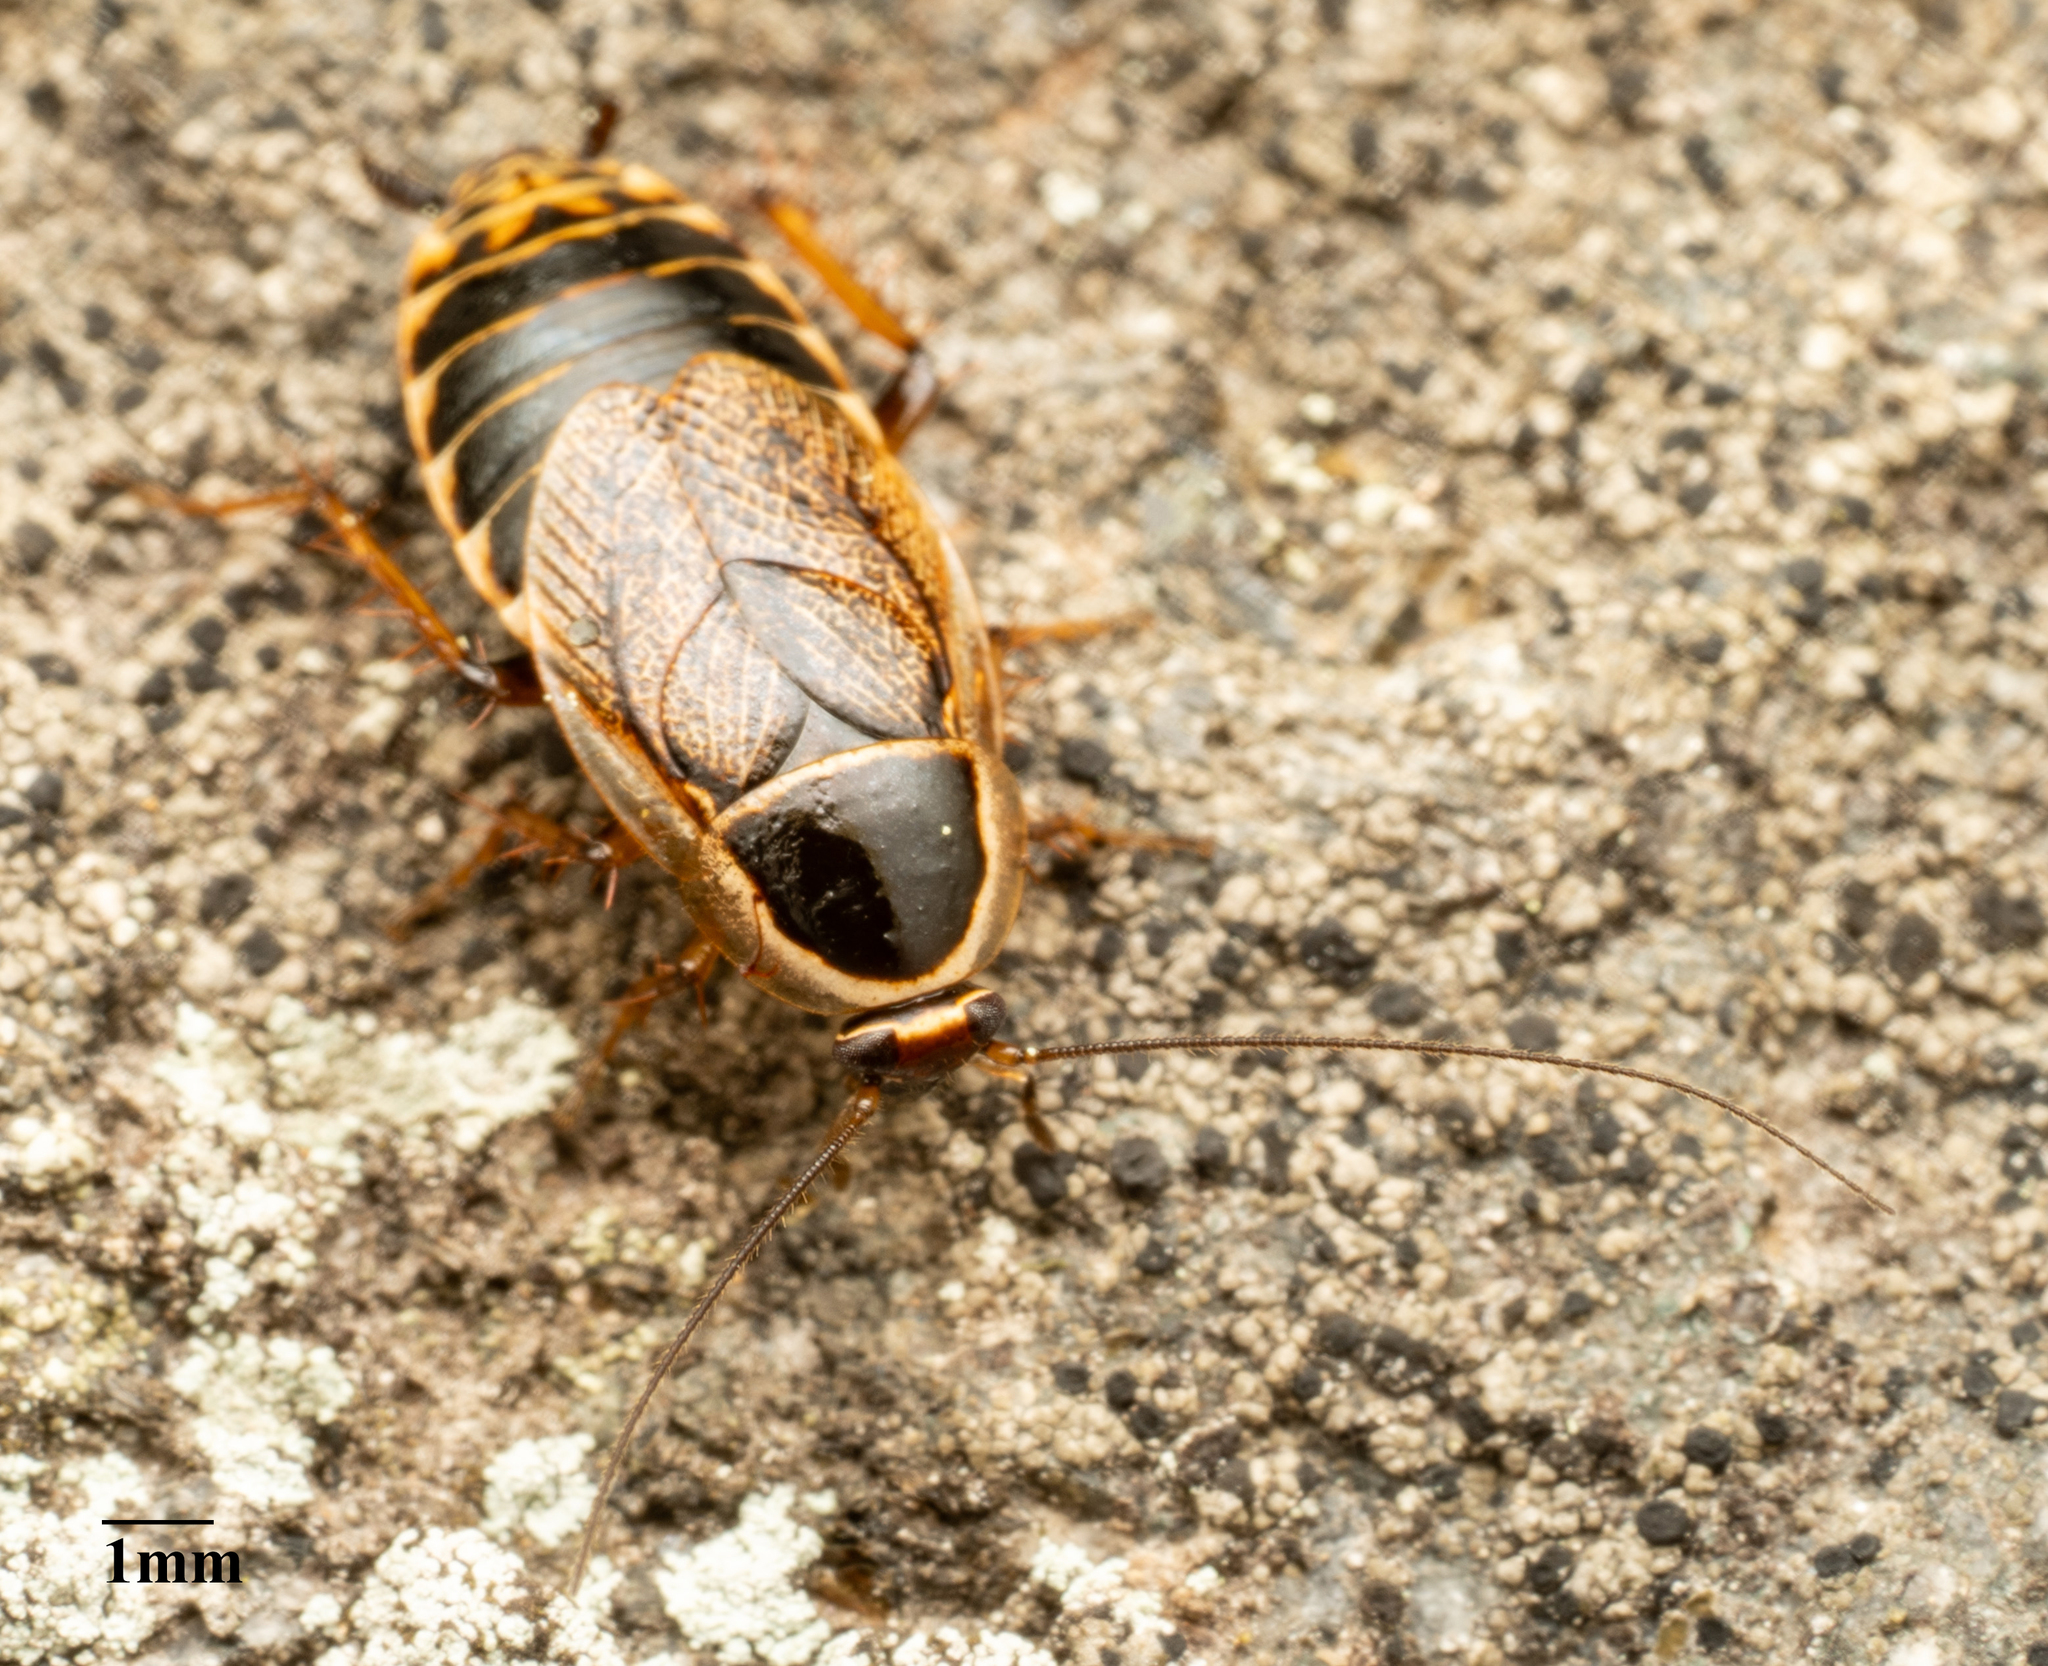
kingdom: Animalia
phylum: Arthropoda
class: Insecta
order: Blattodea
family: Ectobiidae
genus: Ectobius
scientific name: Ectobius sylvestris
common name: Forest cockroach
